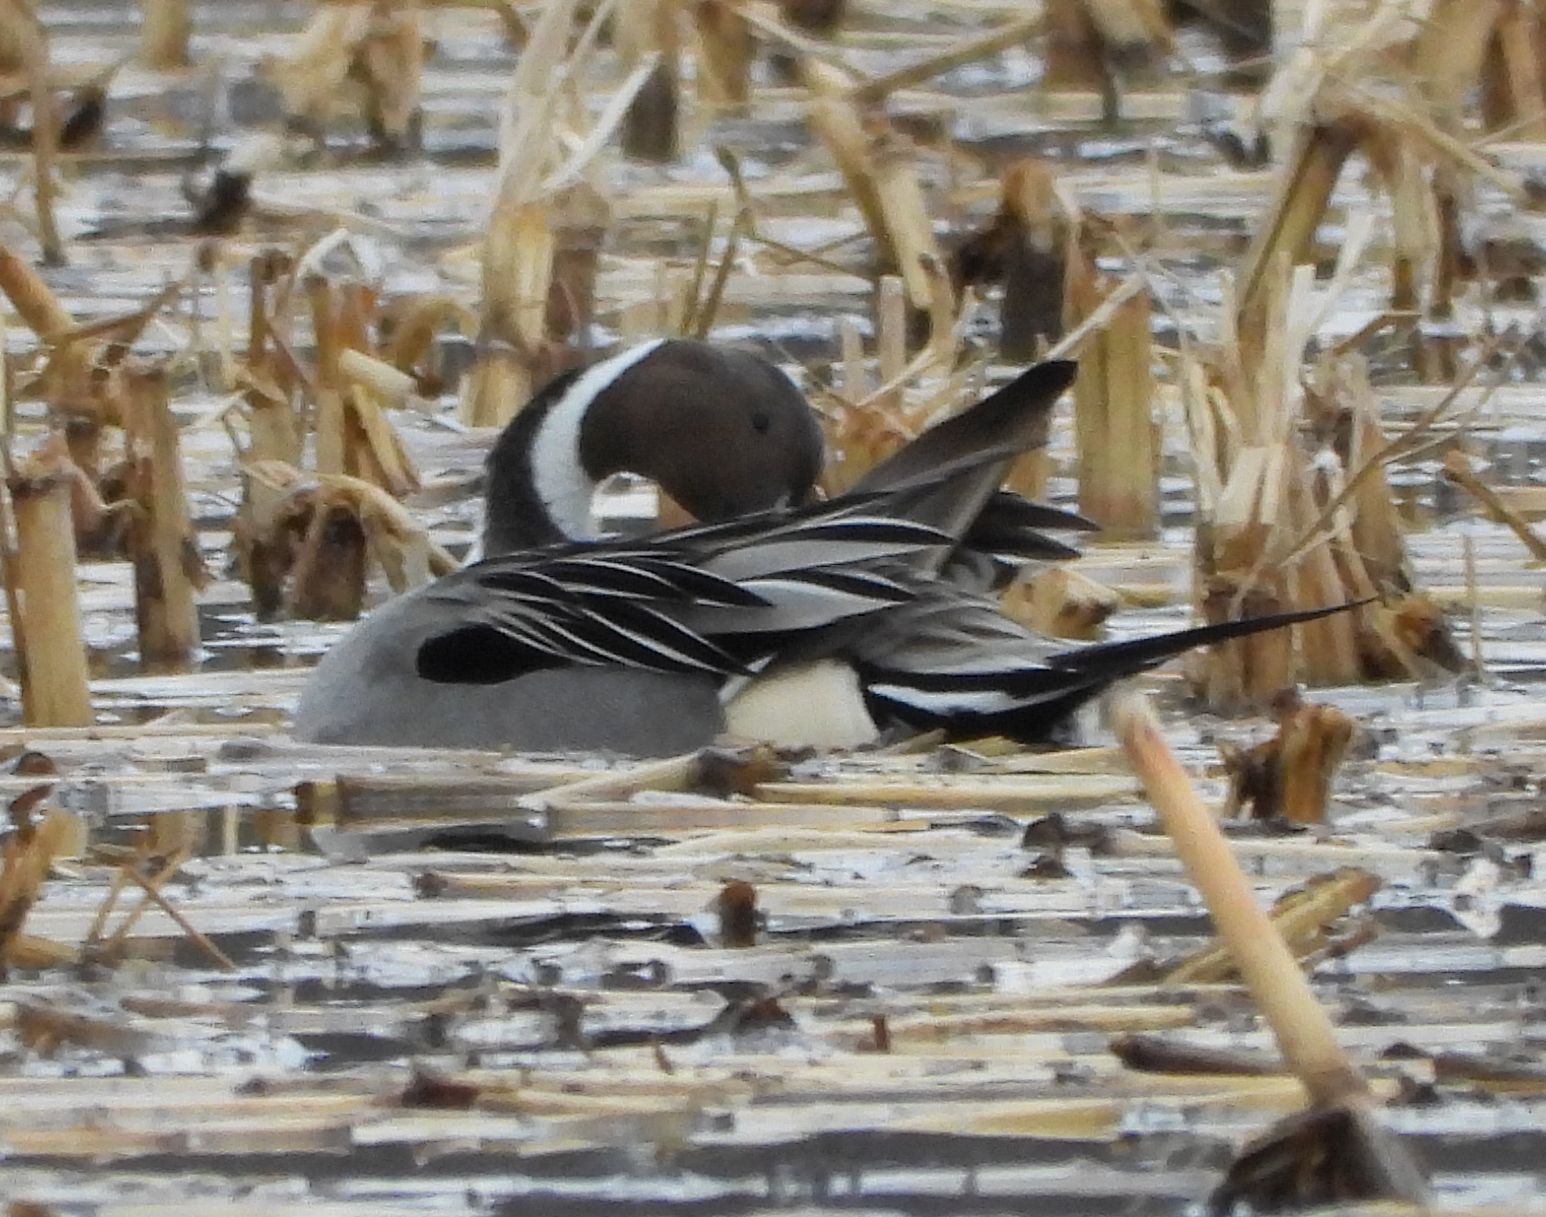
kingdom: Animalia
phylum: Chordata
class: Aves
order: Anseriformes
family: Anatidae
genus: Anas
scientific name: Anas acuta
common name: Northern pintail
